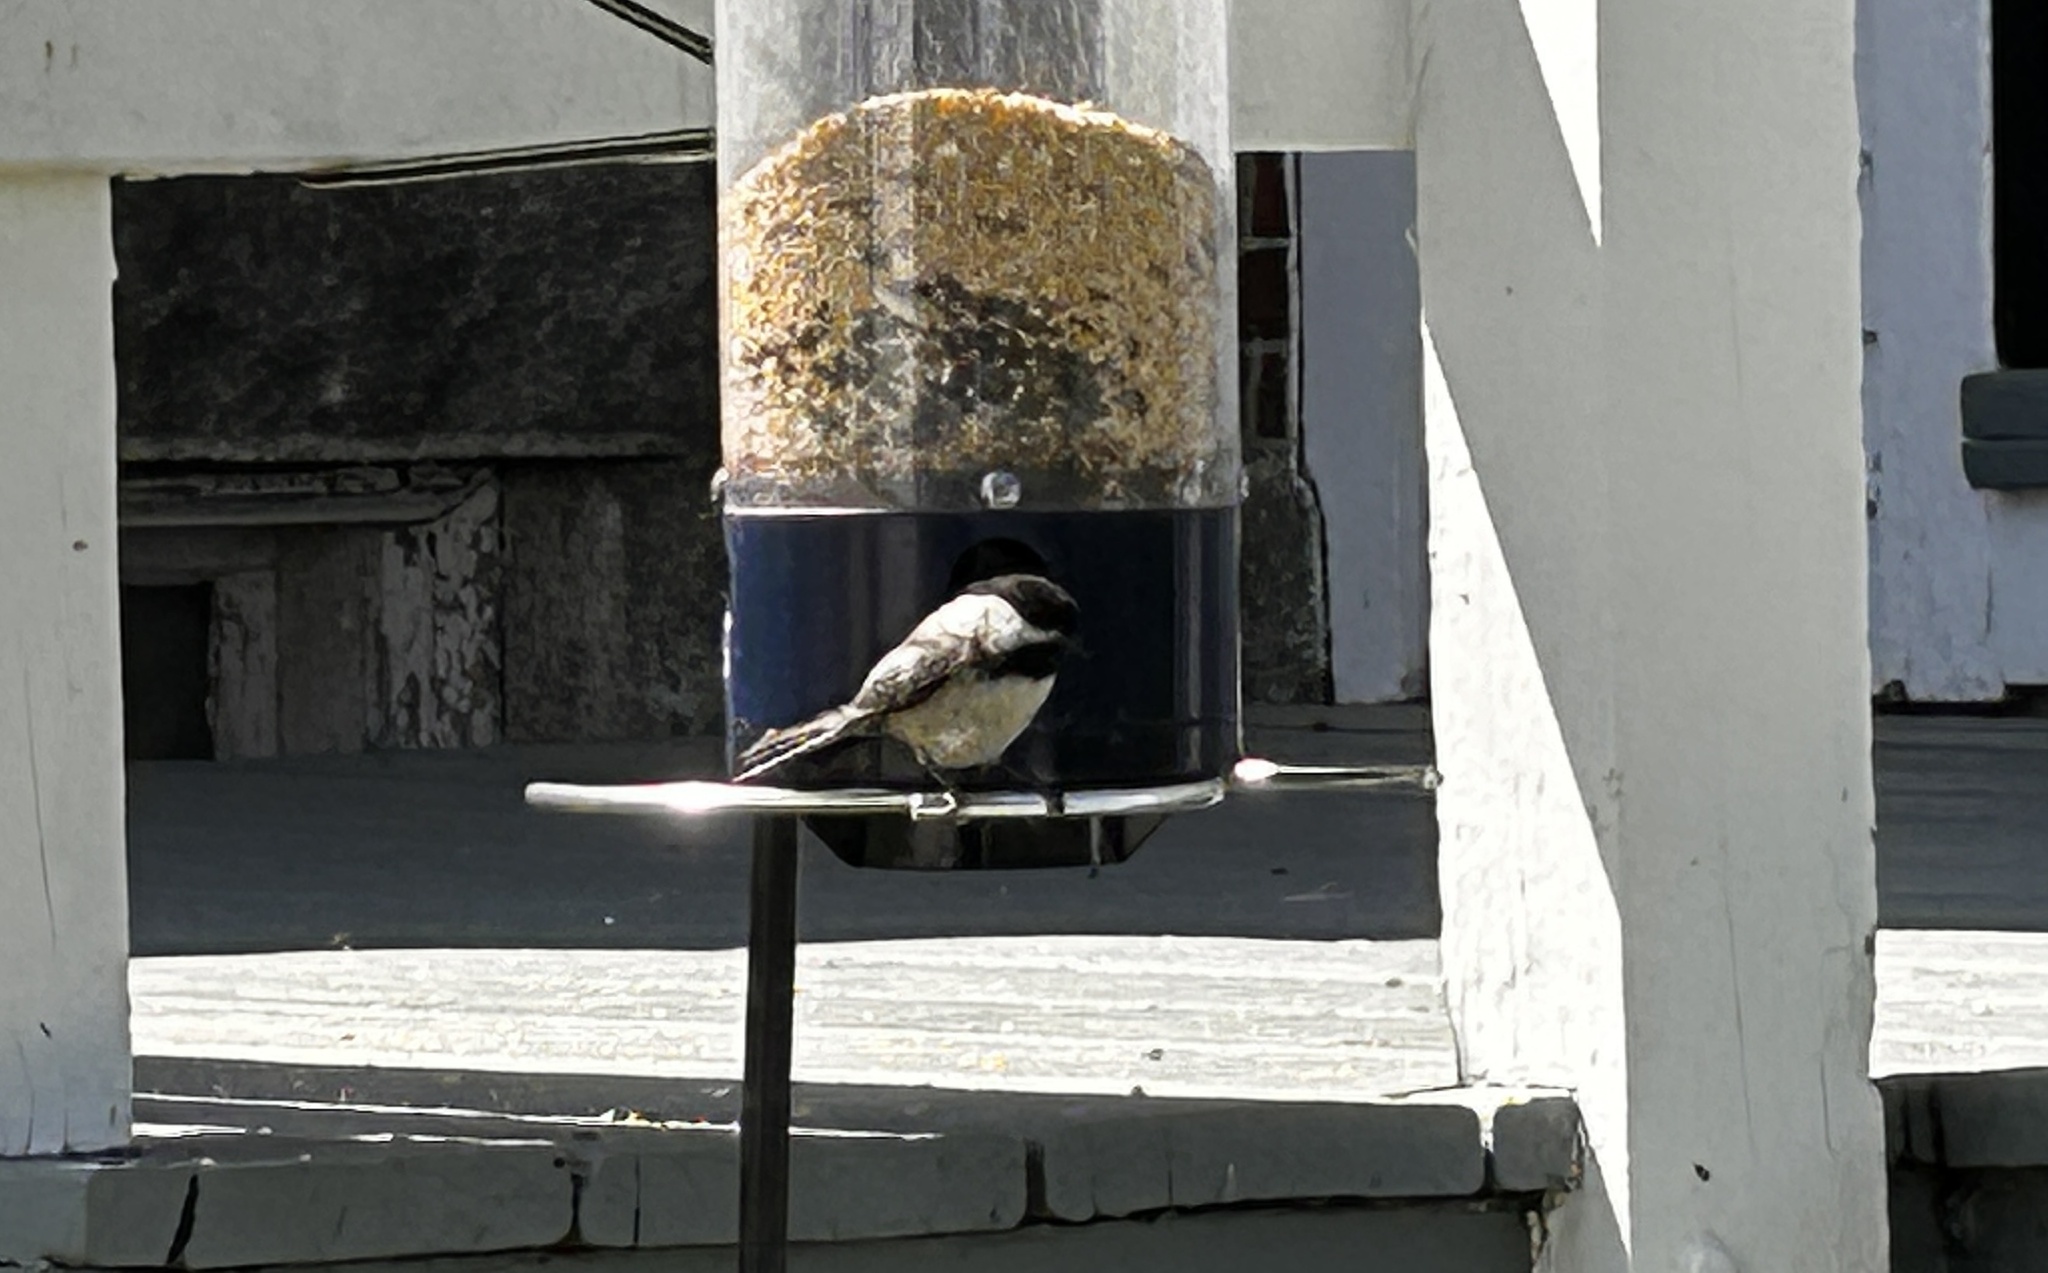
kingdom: Animalia
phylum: Chordata
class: Aves
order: Passeriformes
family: Paridae
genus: Poecile
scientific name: Poecile atricapillus
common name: Black-capped chickadee
